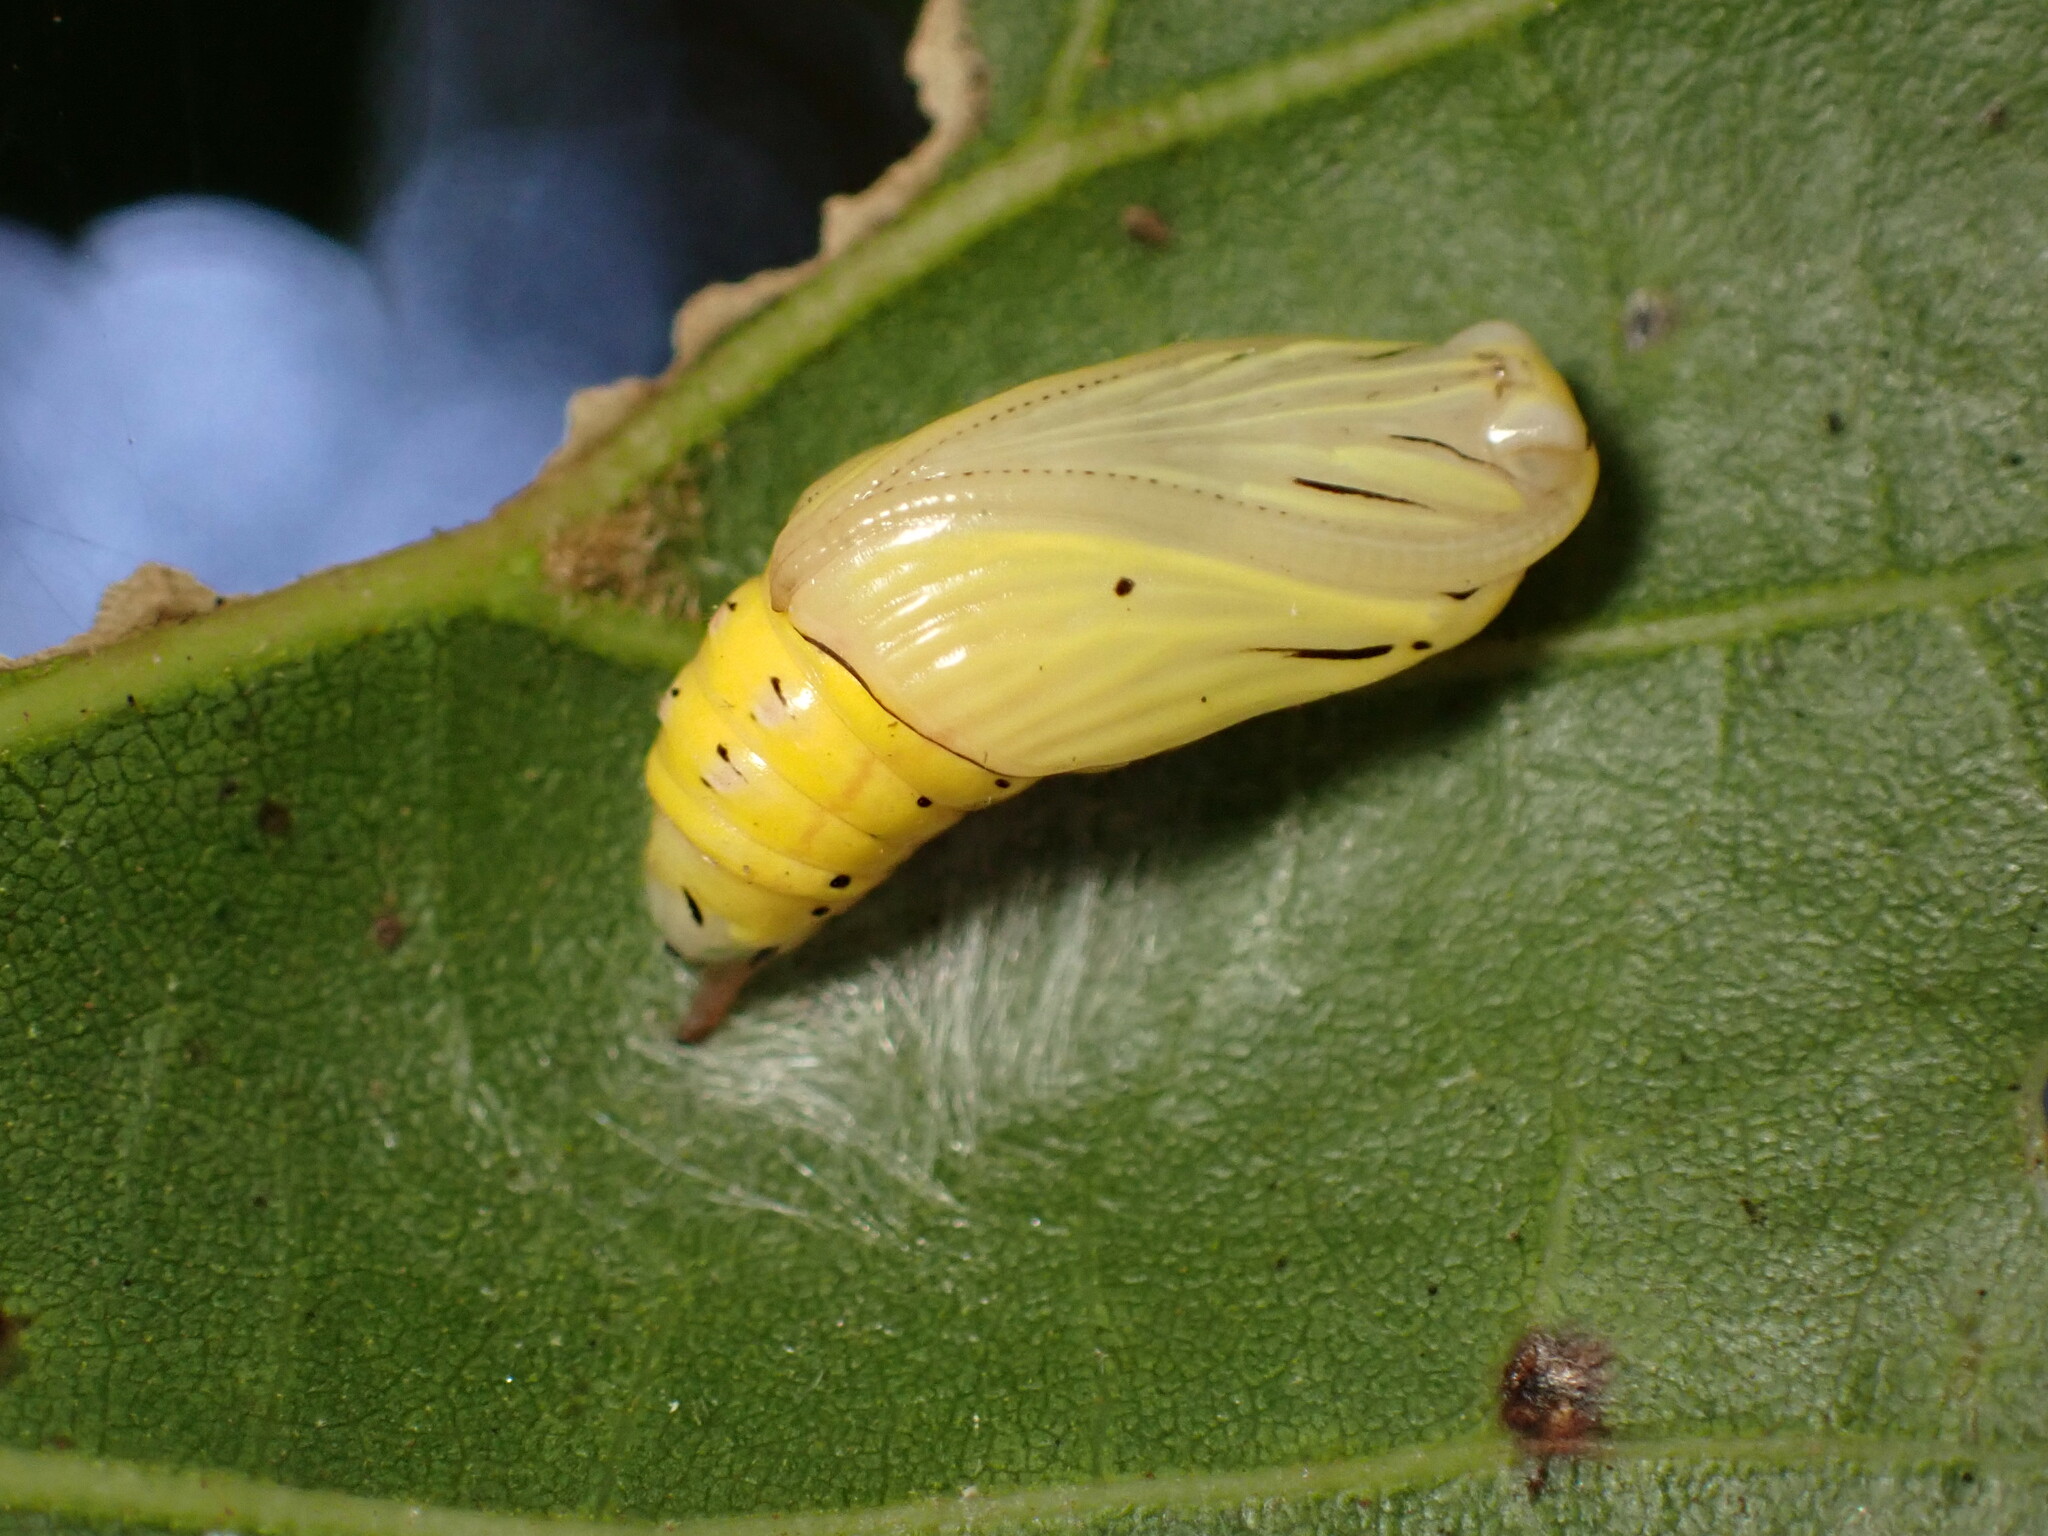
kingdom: Animalia
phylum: Arthropoda
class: Insecta
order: Lepidoptera
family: Notodontidae
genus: Phryganidia
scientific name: Phryganidia californica
